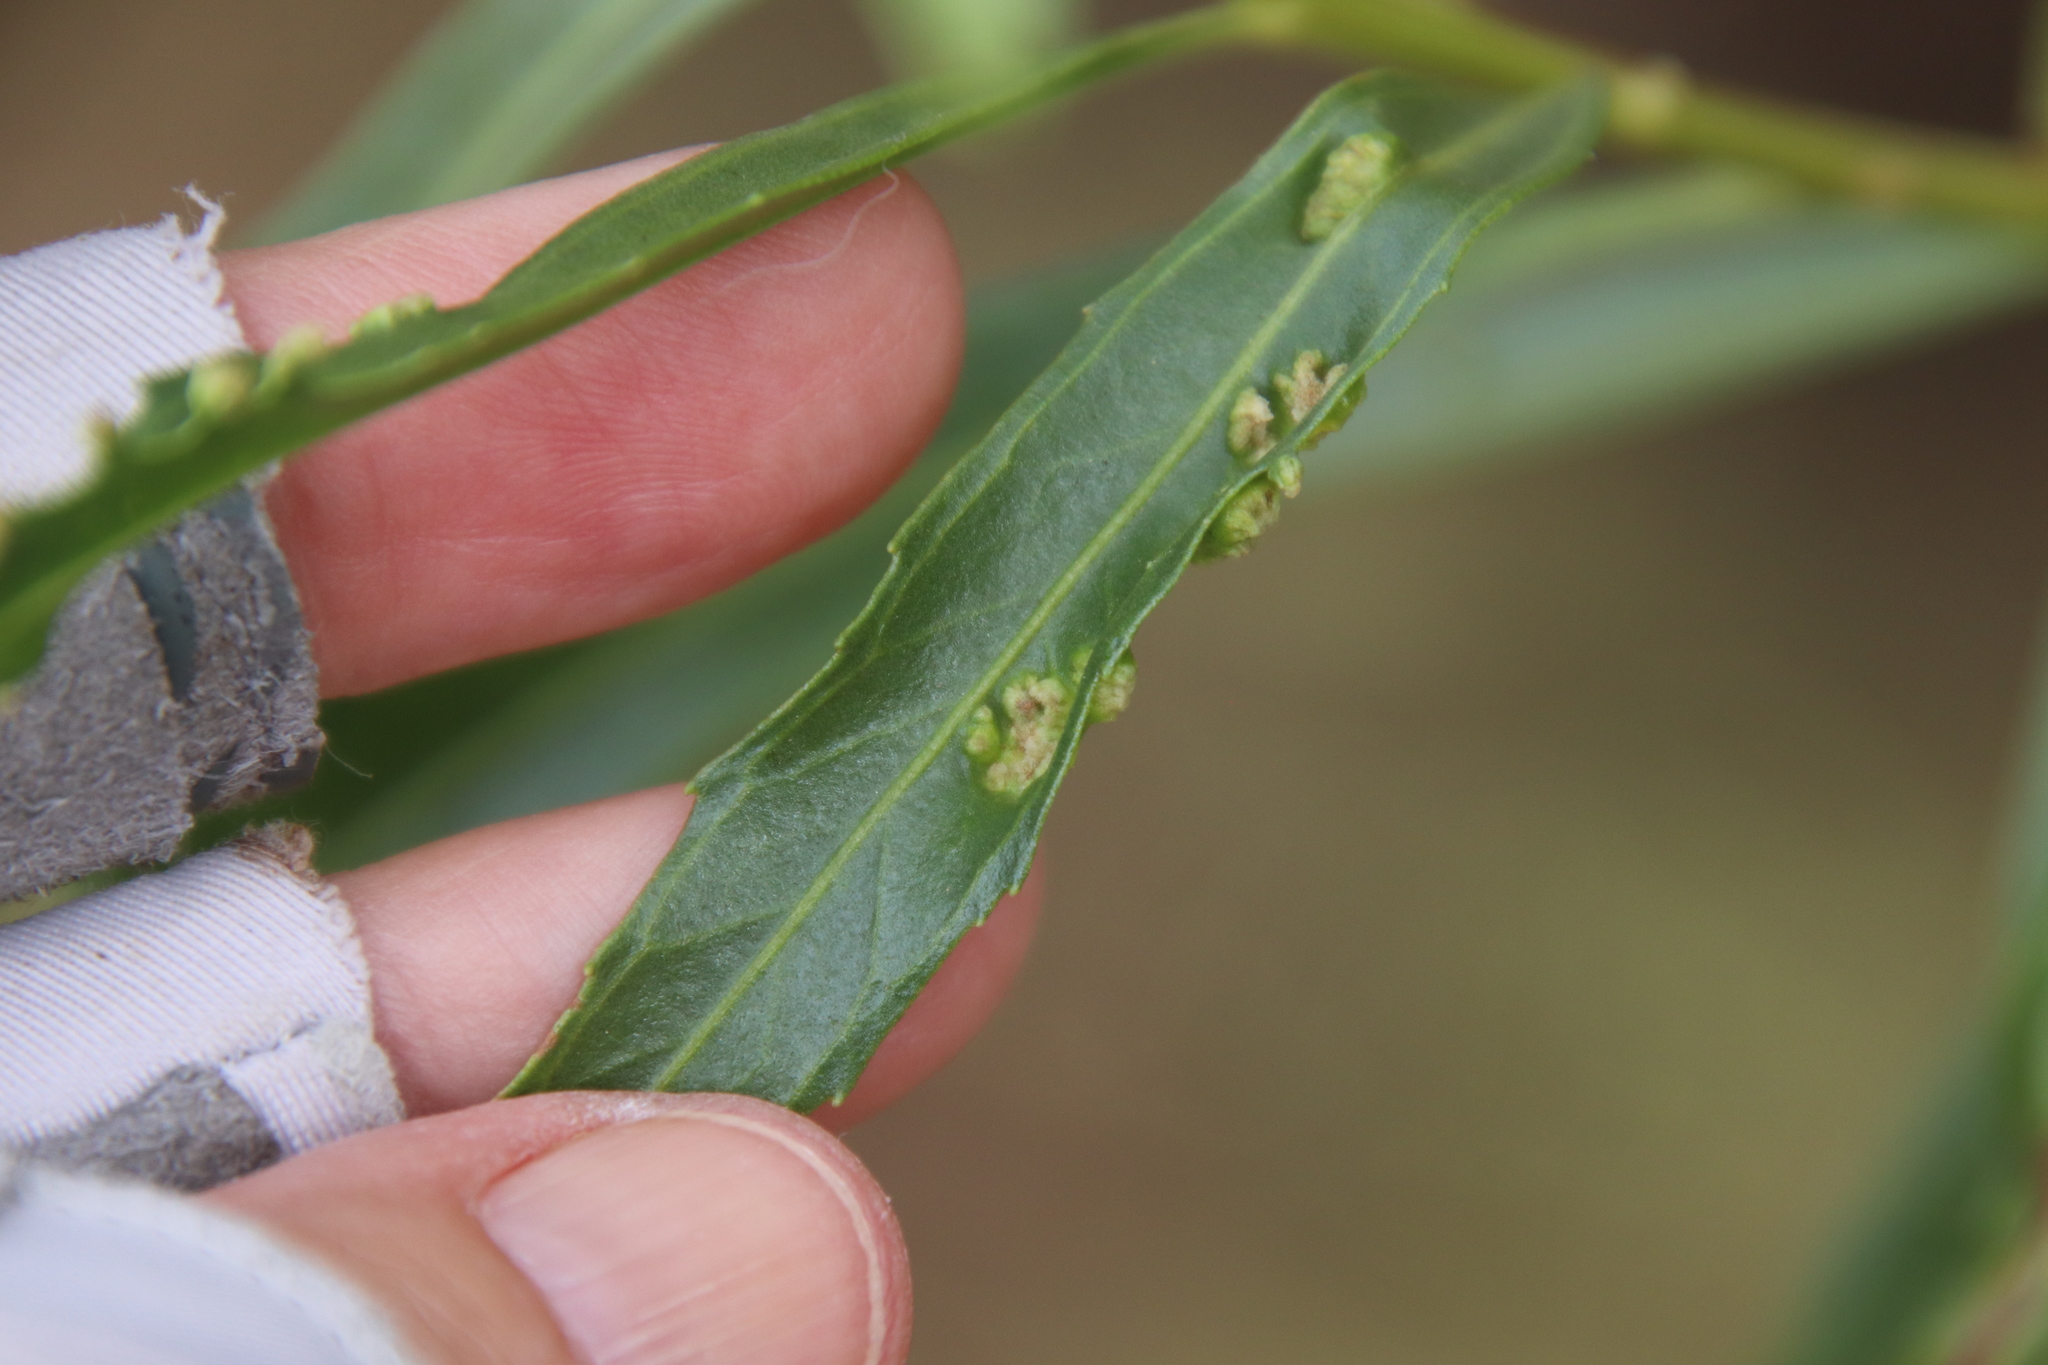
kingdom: Animalia
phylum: Arthropoda
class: Arachnida
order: Trombidiformes
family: Eriophyidae
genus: Aceria
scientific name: Aceria
